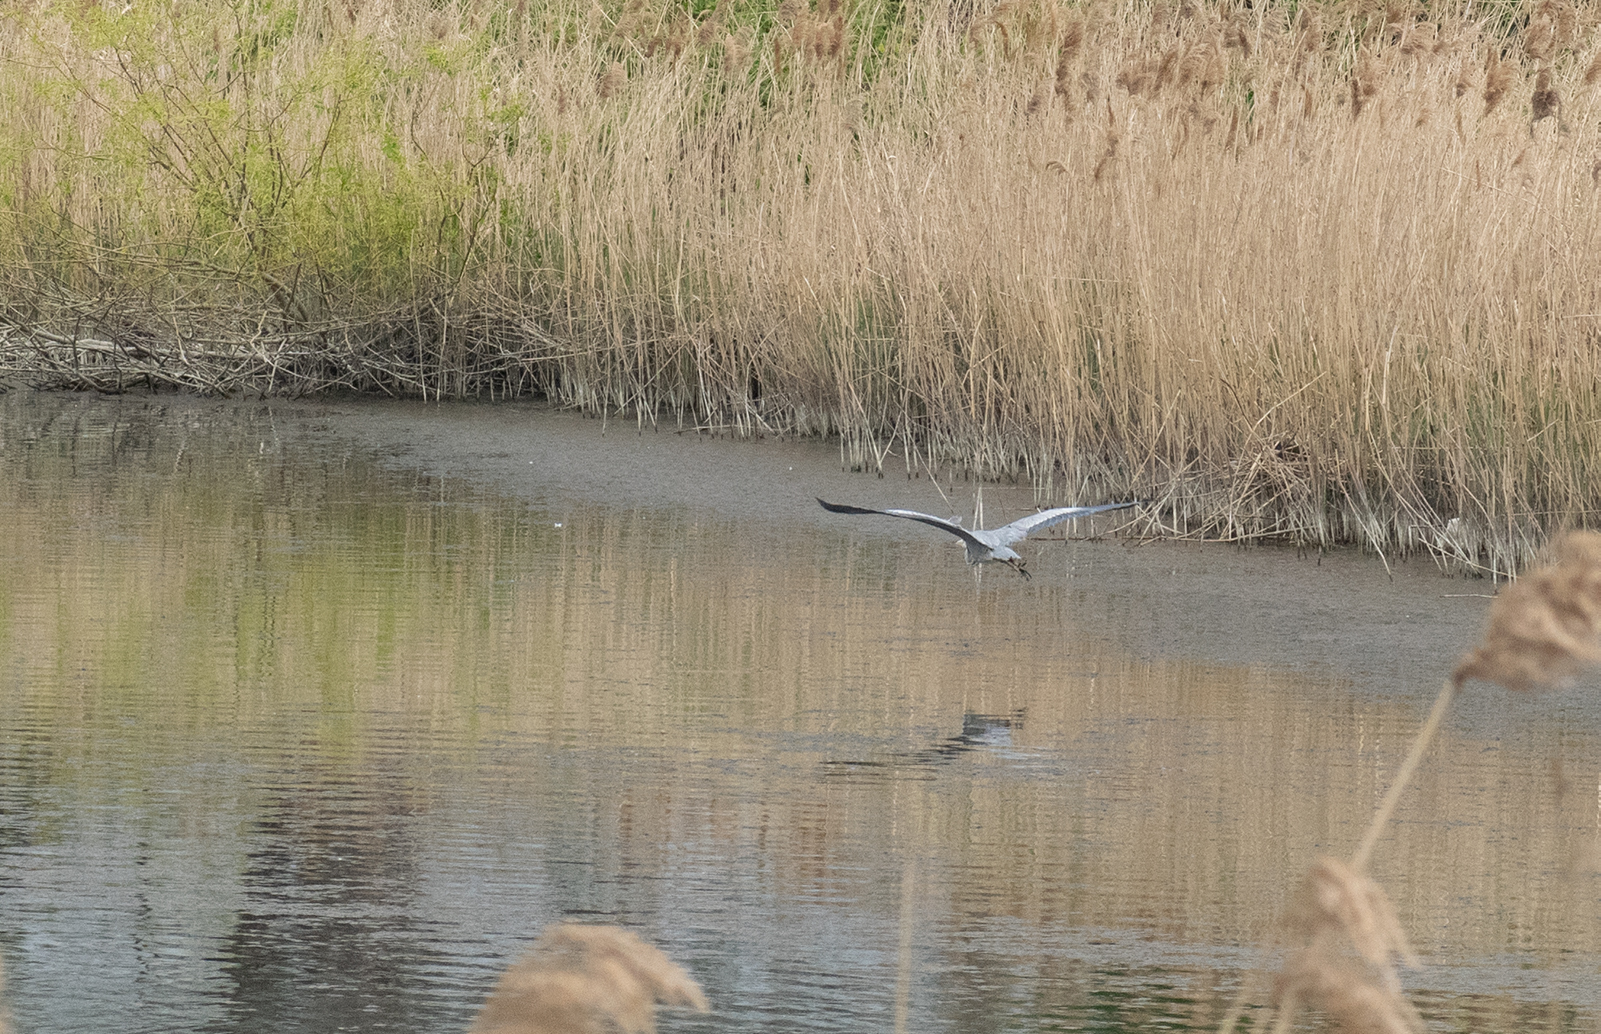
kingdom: Animalia
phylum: Chordata
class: Aves
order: Pelecaniformes
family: Ardeidae
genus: Ardea
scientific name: Ardea cinerea
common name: Grey heron
